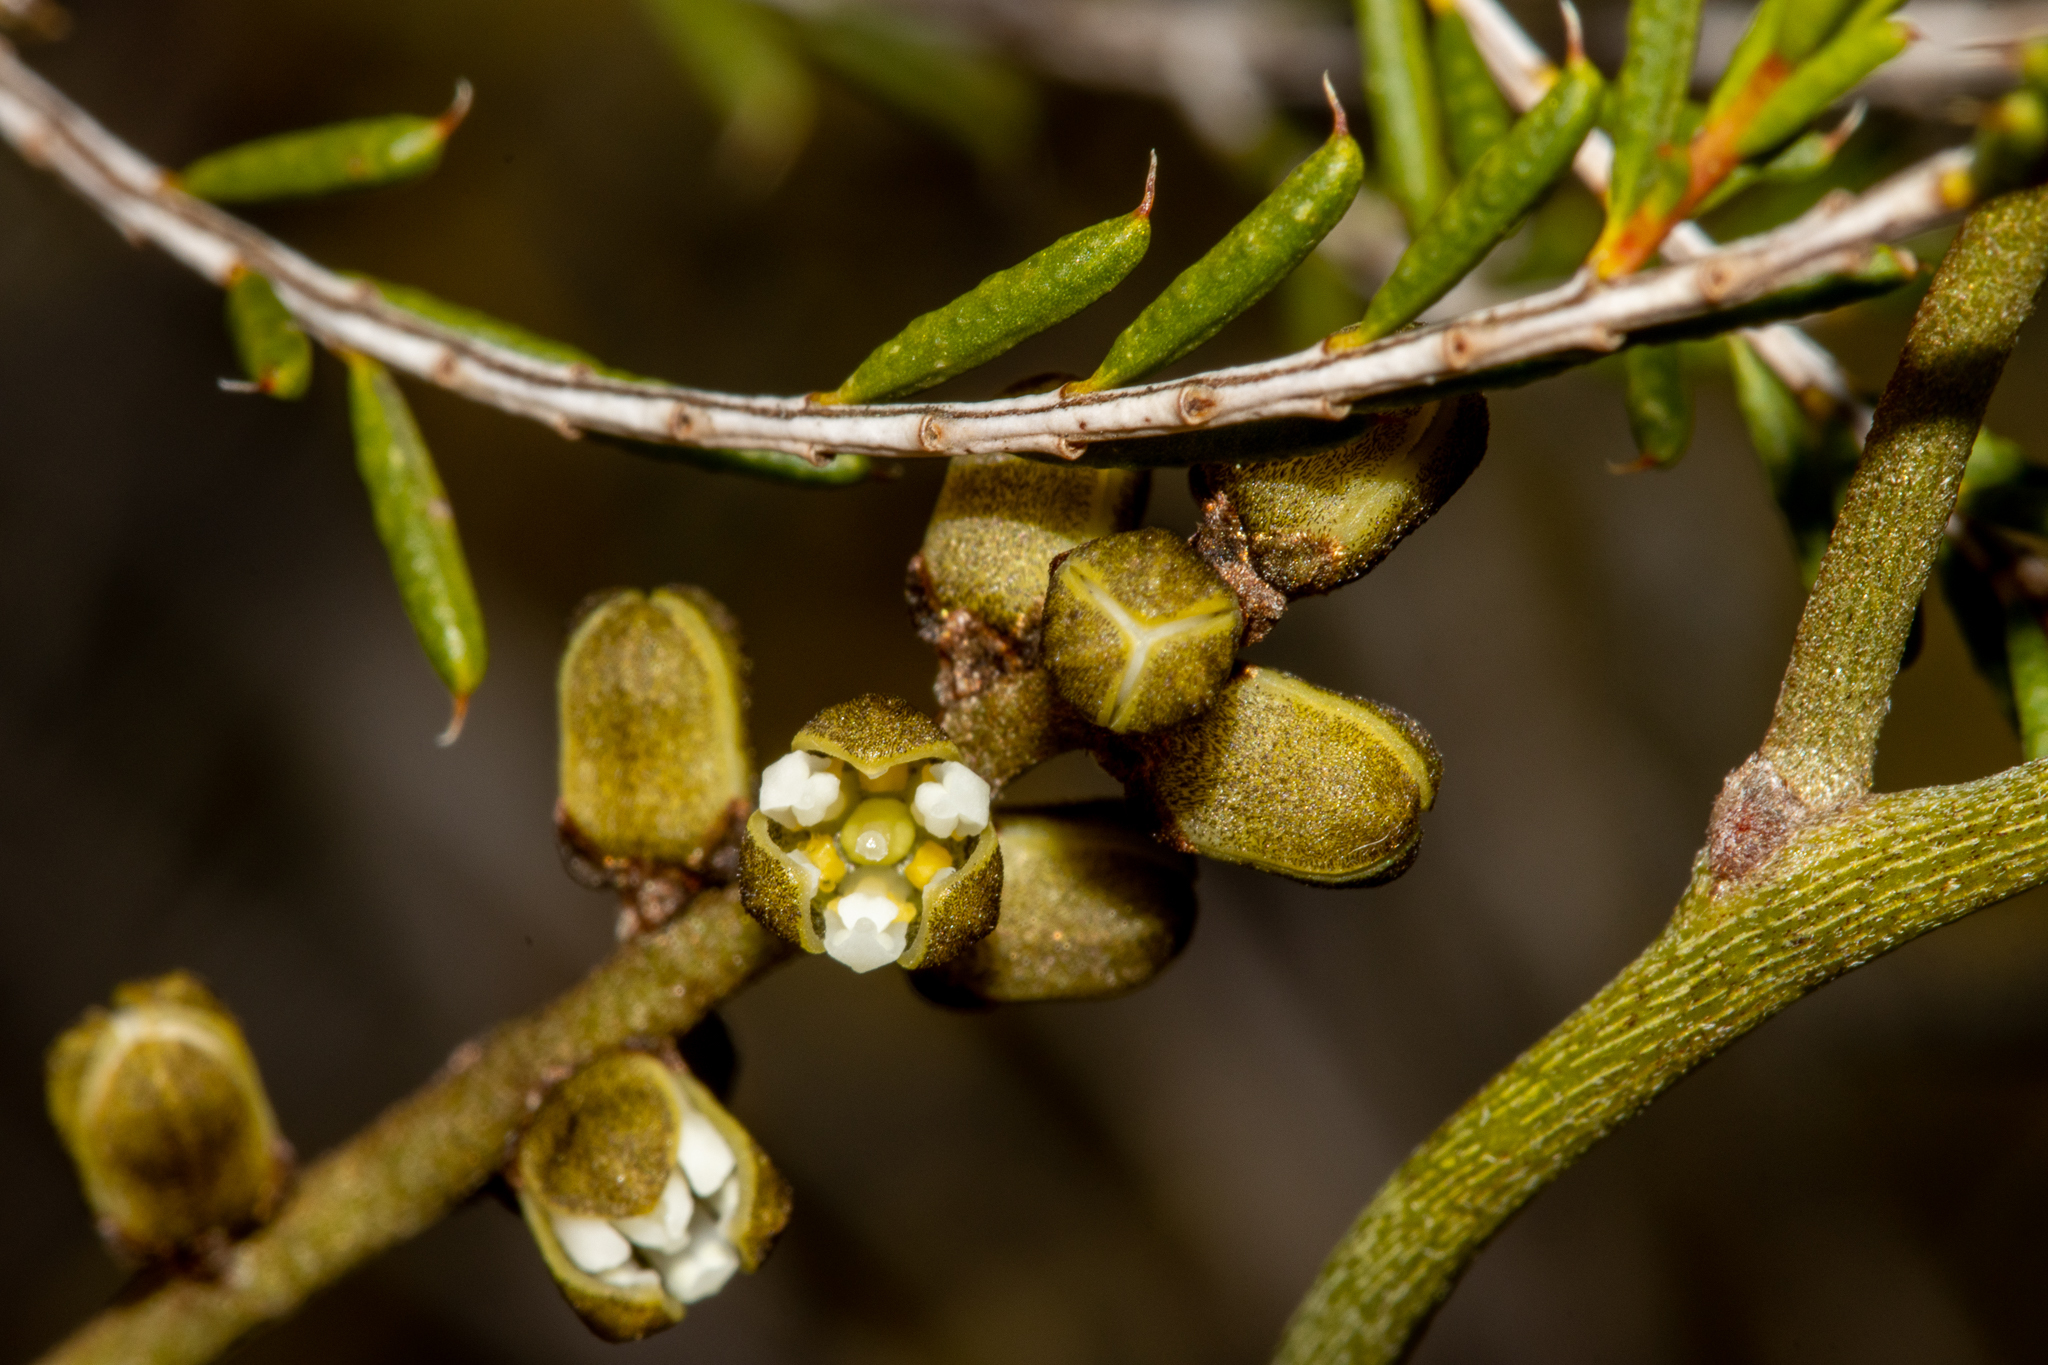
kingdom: Plantae
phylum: Tracheophyta
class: Magnoliopsida
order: Laurales
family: Lauraceae
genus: Cassytha
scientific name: Cassytha melantha
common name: Mallee stranglevine
